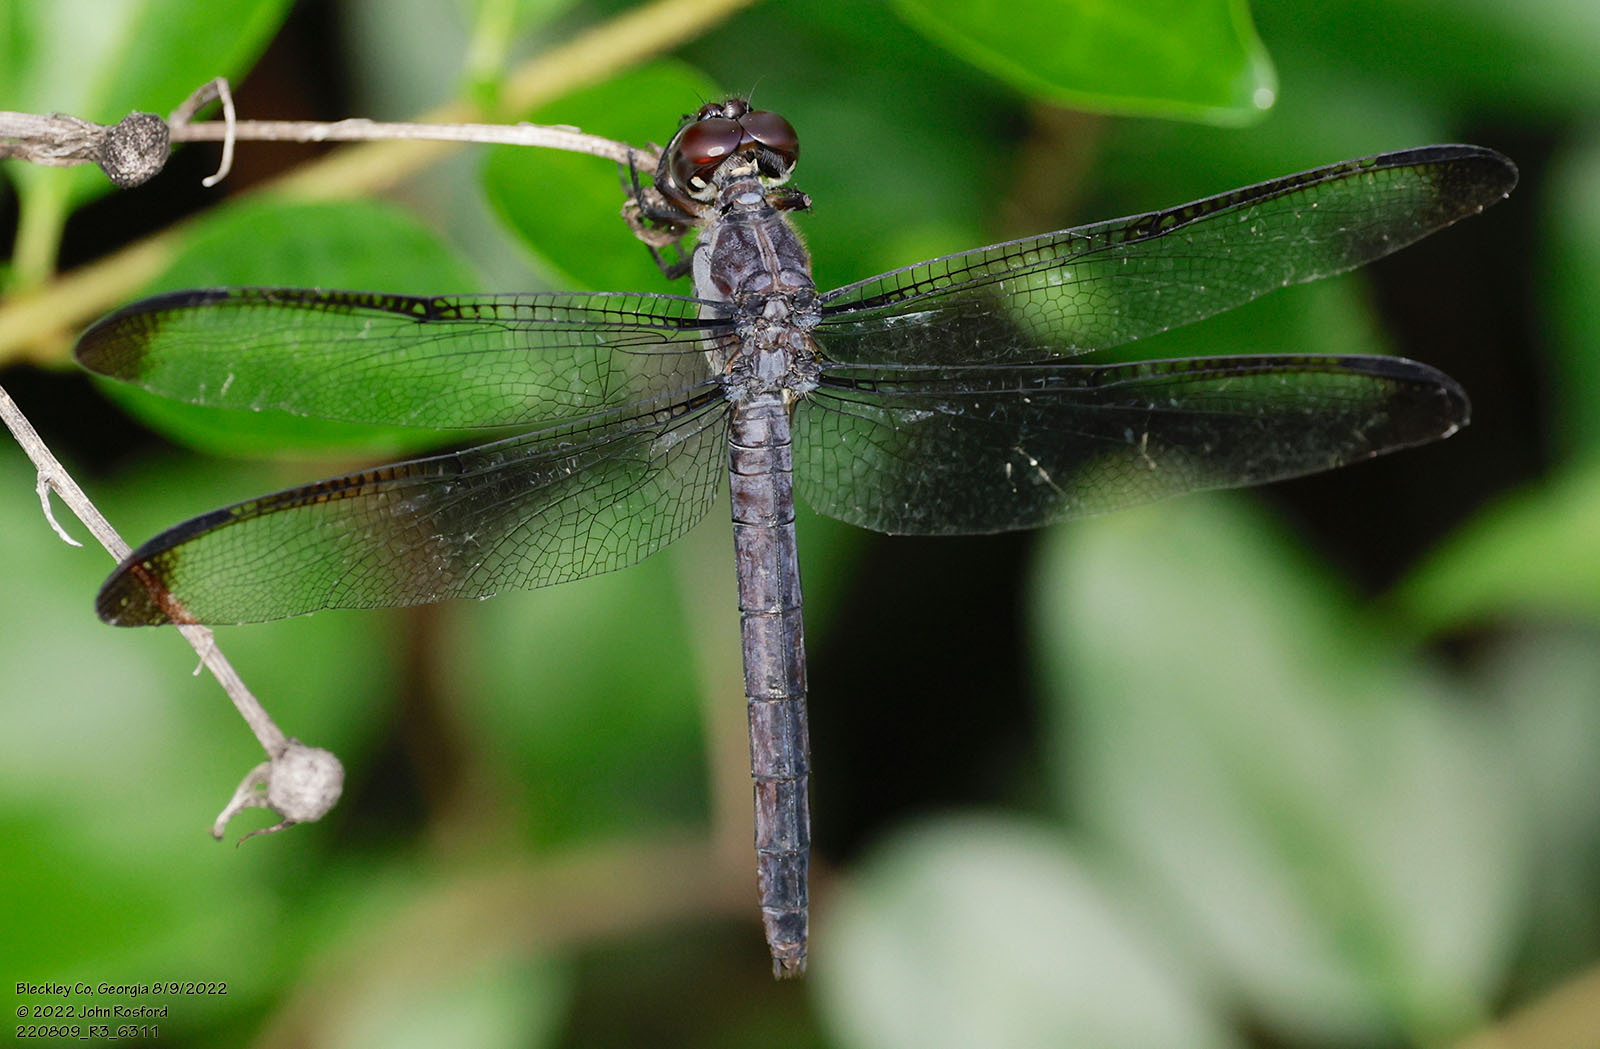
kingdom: Animalia
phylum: Arthropoda
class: Insecta
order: Odonata
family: Libellulidae
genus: Libellula
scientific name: Libellula incesta
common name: Slaty skimmer
